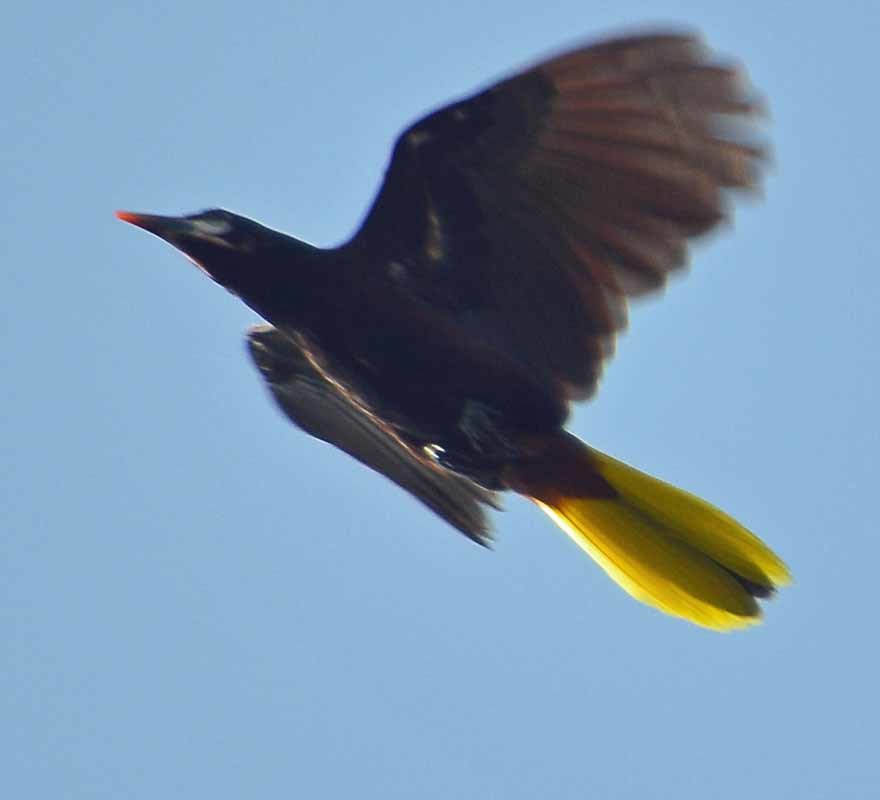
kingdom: Animalia
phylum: Chordata
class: Aves
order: Passeriformes
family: Icteridae
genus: Psarocolius
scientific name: Psarocolius montezuma
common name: Montezuma oropendola
